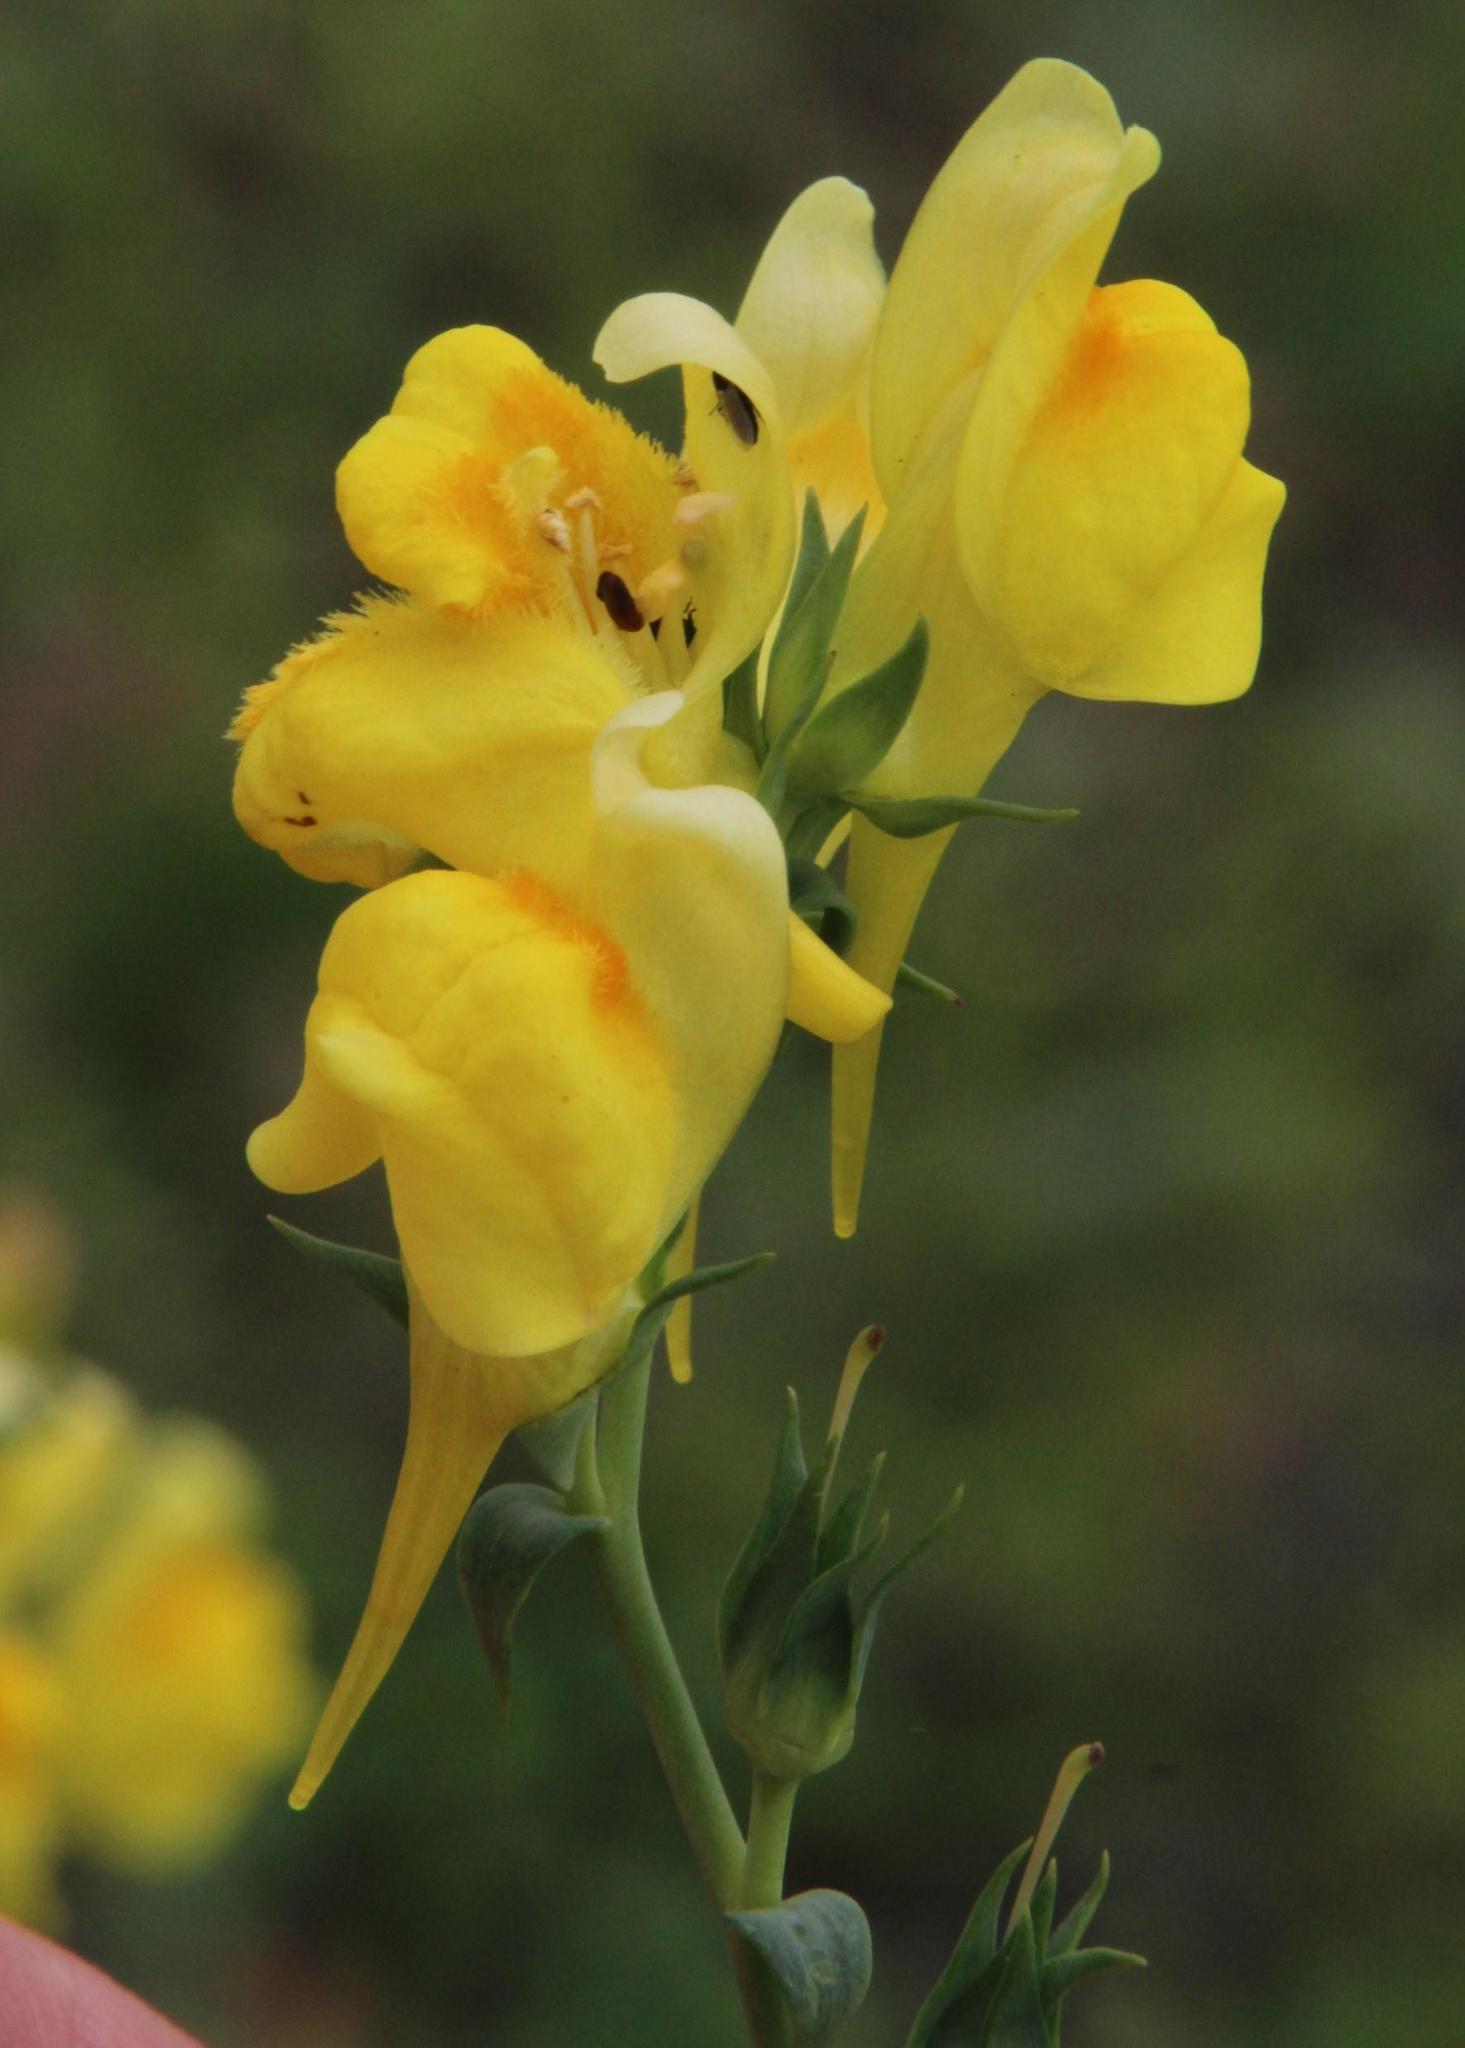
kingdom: Plantae
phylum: Tracheophyta
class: Magnoliopsida
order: Lamiales
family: Plantaginaceae
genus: Linaria
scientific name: Linaria vulgaris
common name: Butter and eggs
